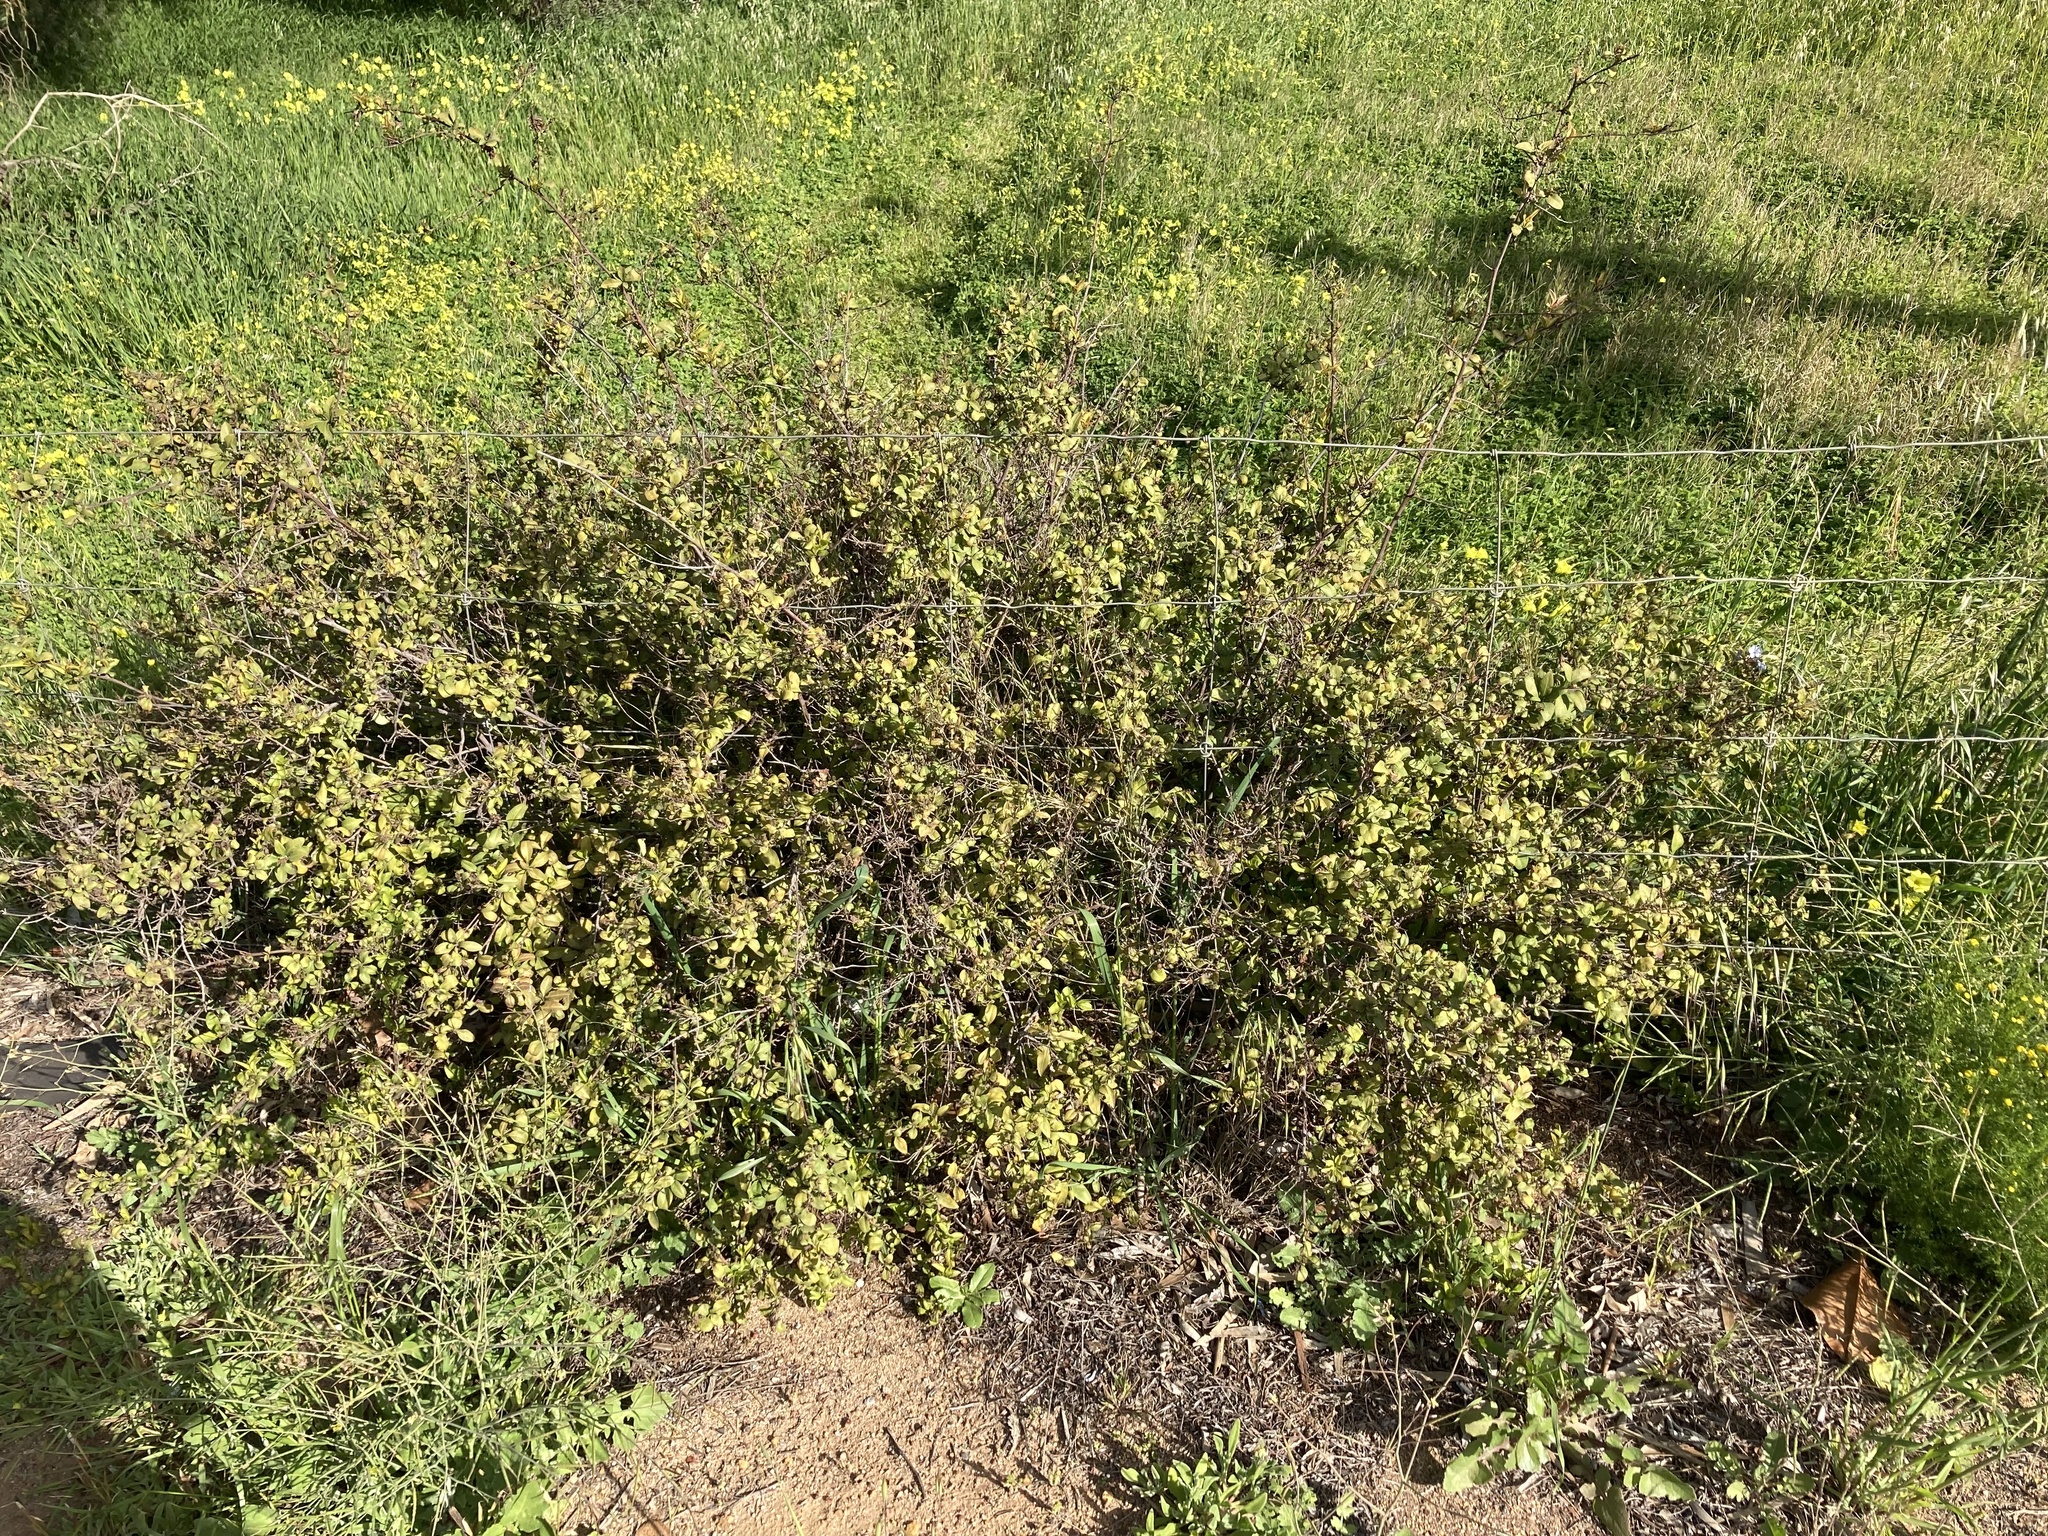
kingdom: Plantae
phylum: Tracheophyta
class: Magnoliopsida
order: Caryophyllales
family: Plumbaginaceae
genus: Plumbago
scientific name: Plumbago auriculata
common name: Cape leadwort
